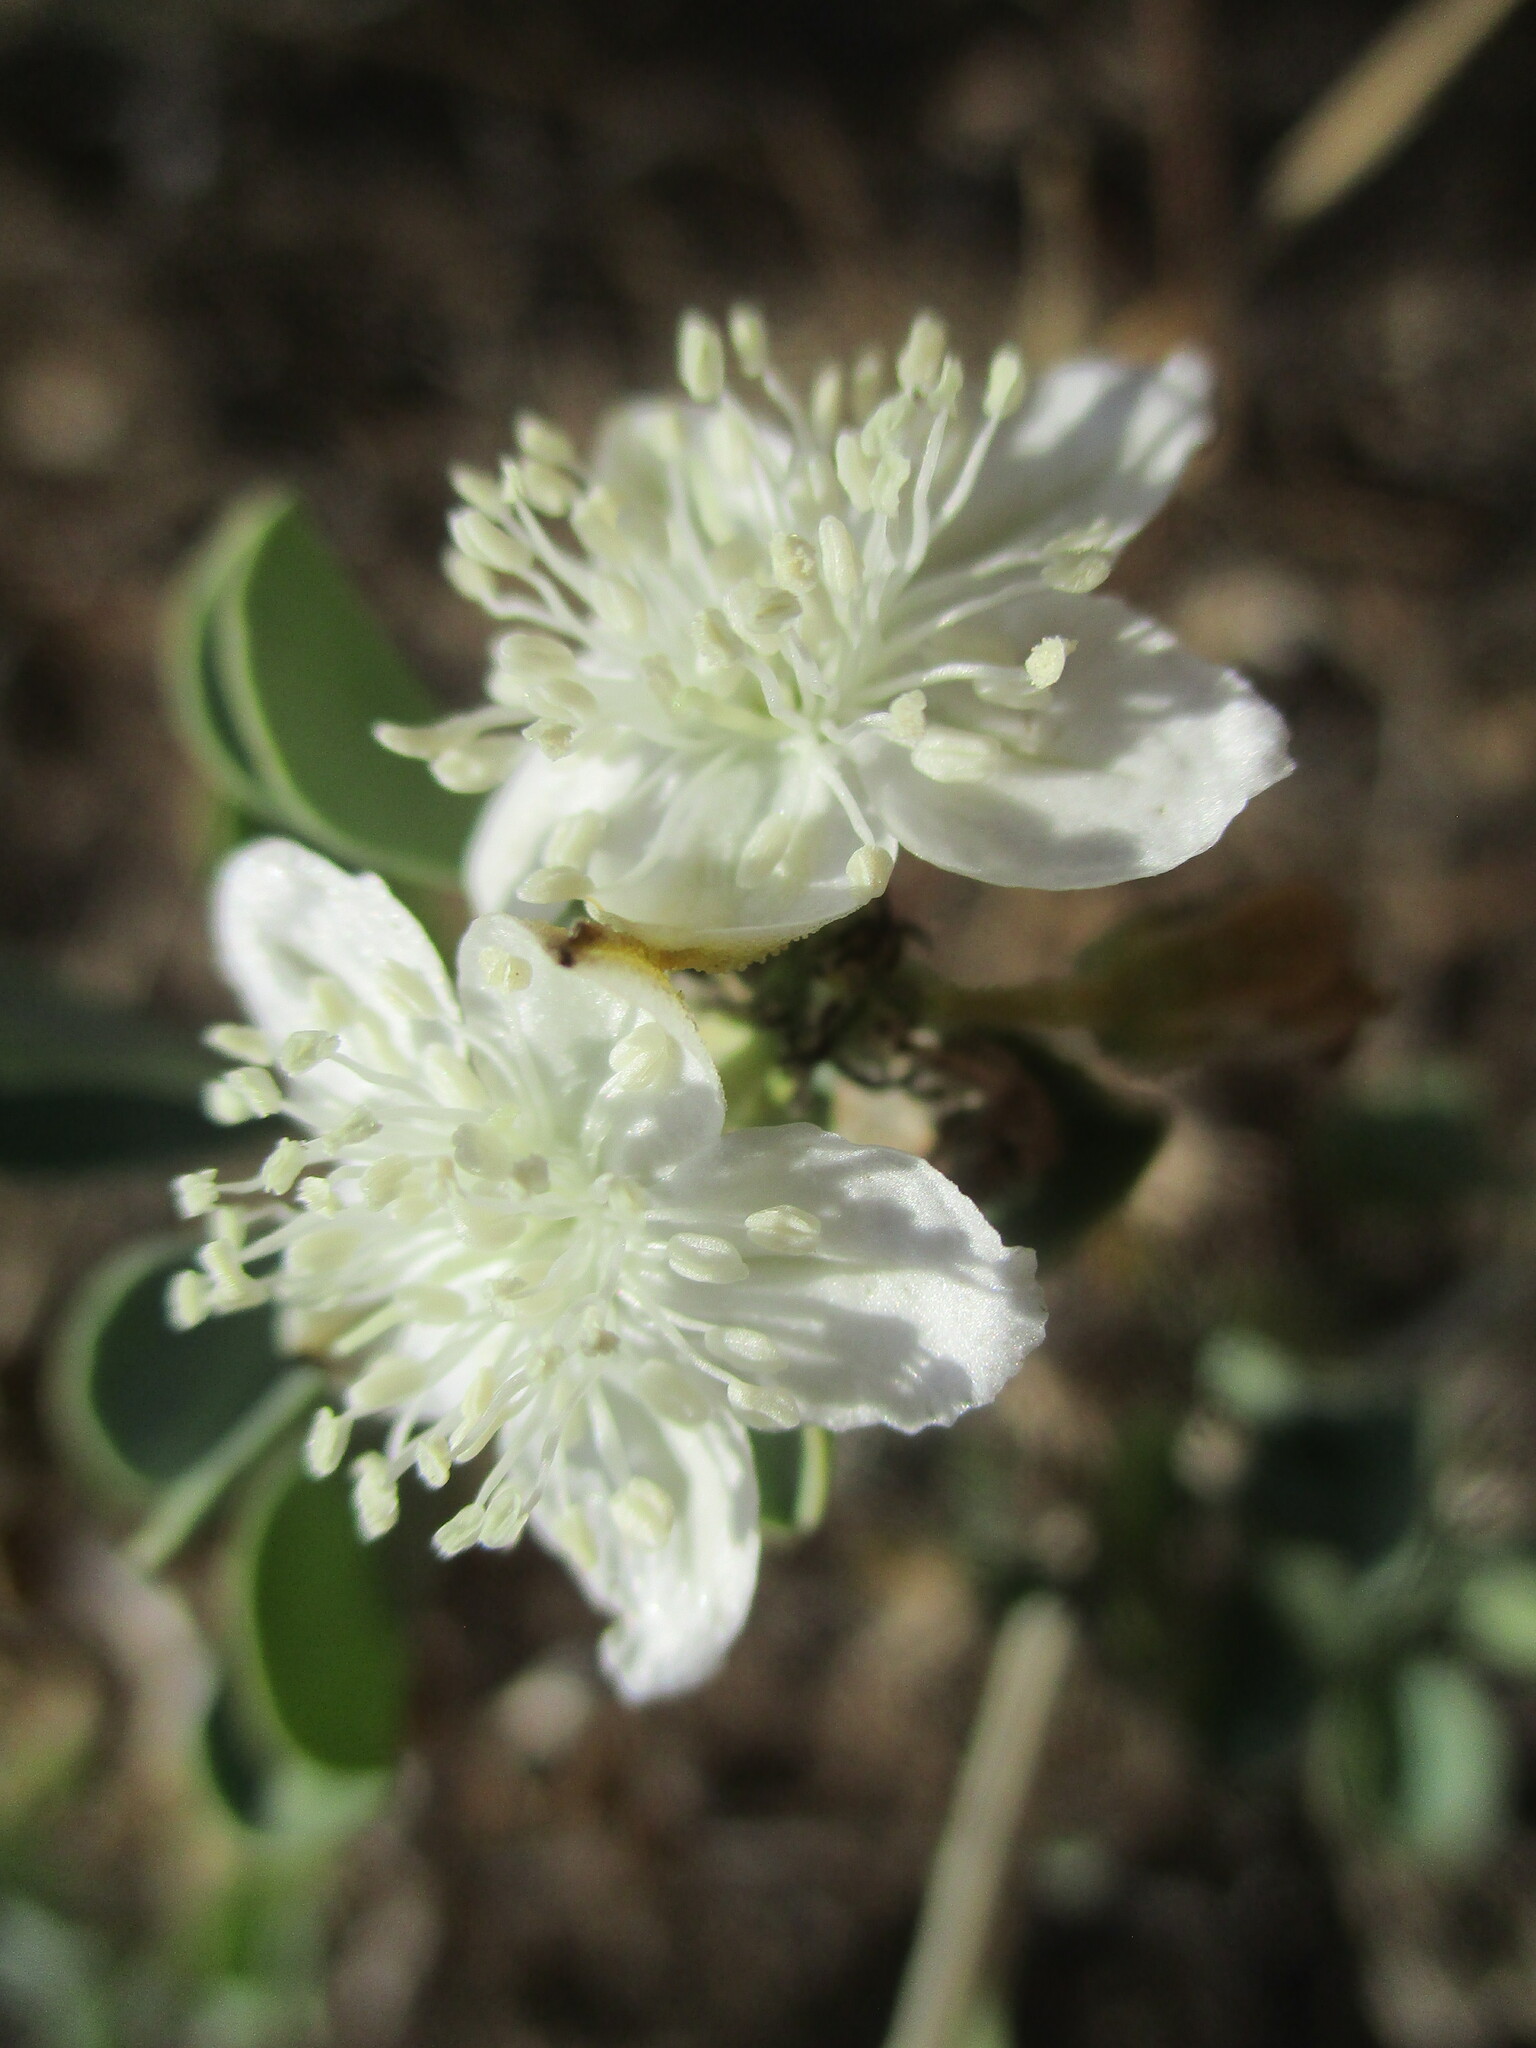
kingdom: Plantae
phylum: Tracheophyta
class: Magnoliopsida
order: Caryophyllales
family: Aizoaceae
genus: Tribulocarpus
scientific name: Tribulocarpus dimorphanthus
